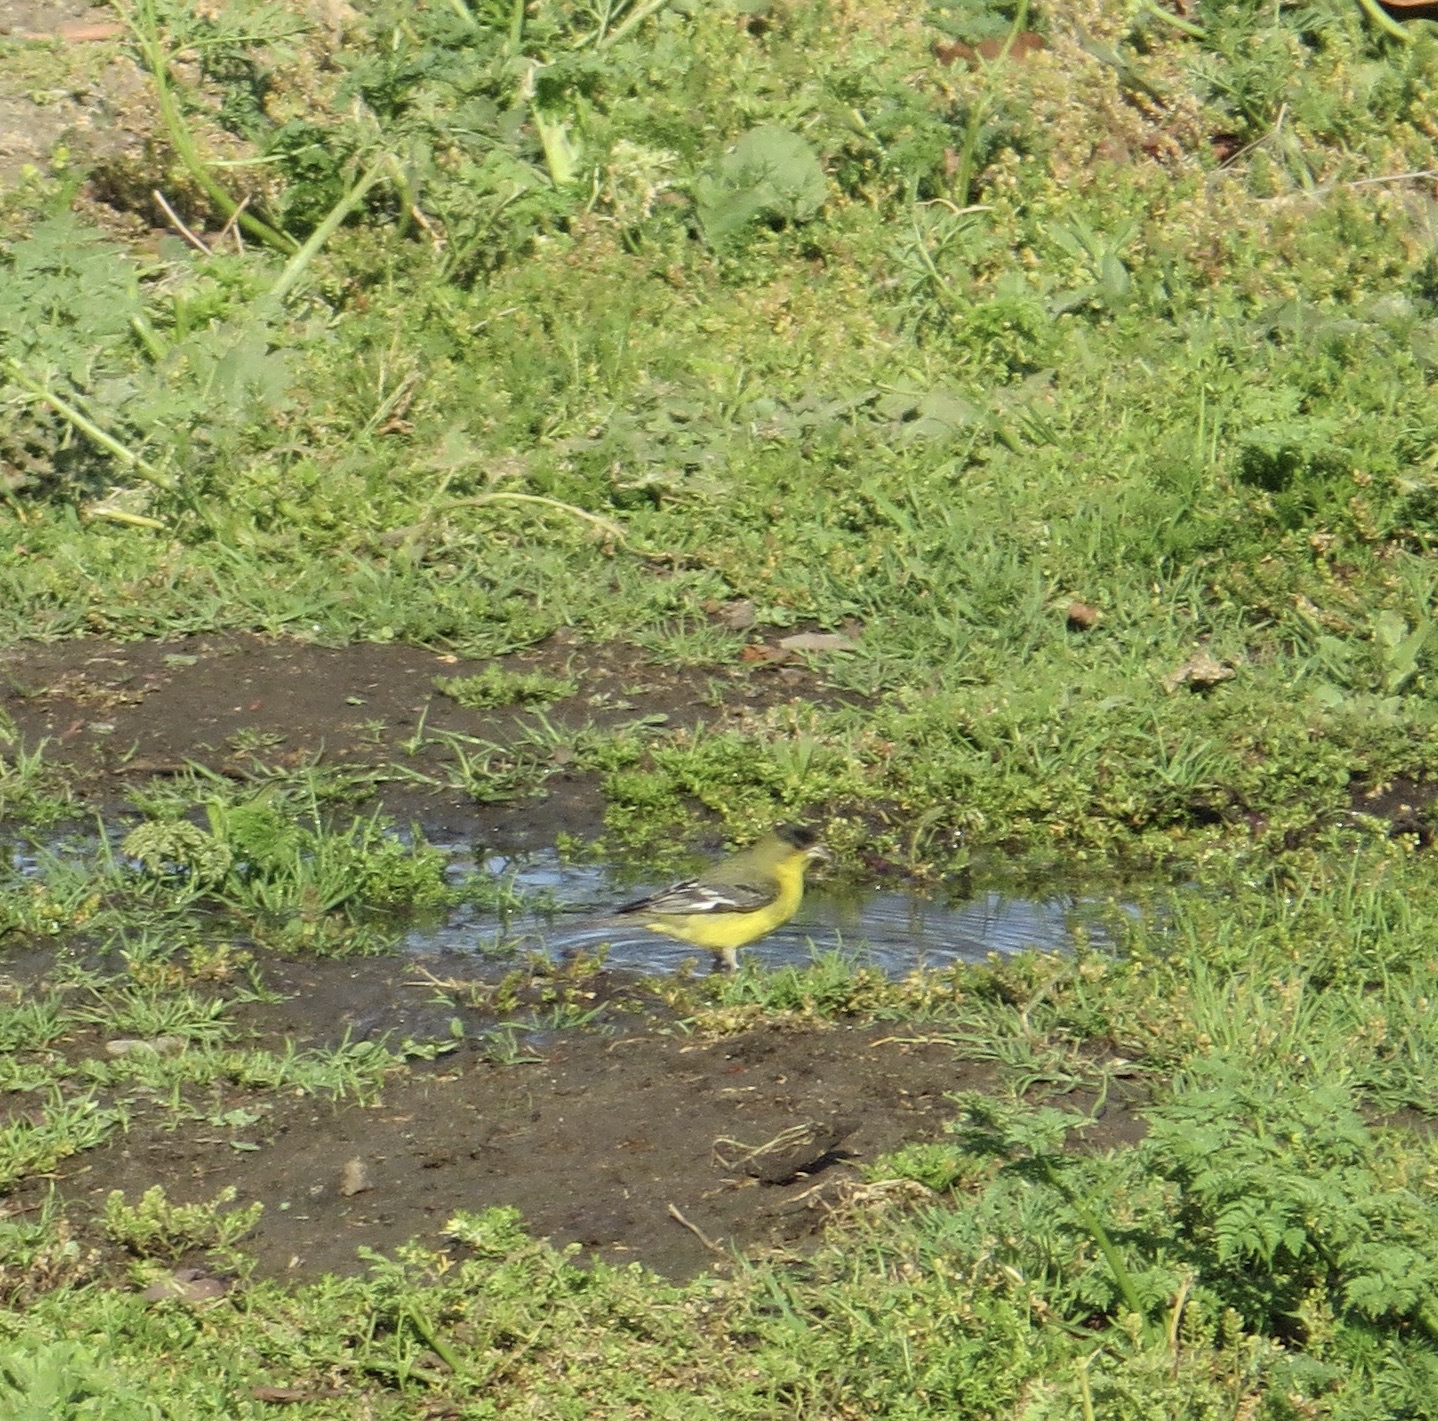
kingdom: Animalia
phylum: Chordata
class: Aves
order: Passeriformes
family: Fringillidae
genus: Spinus
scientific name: Spinus psaltria
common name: Lesser goldfinch
